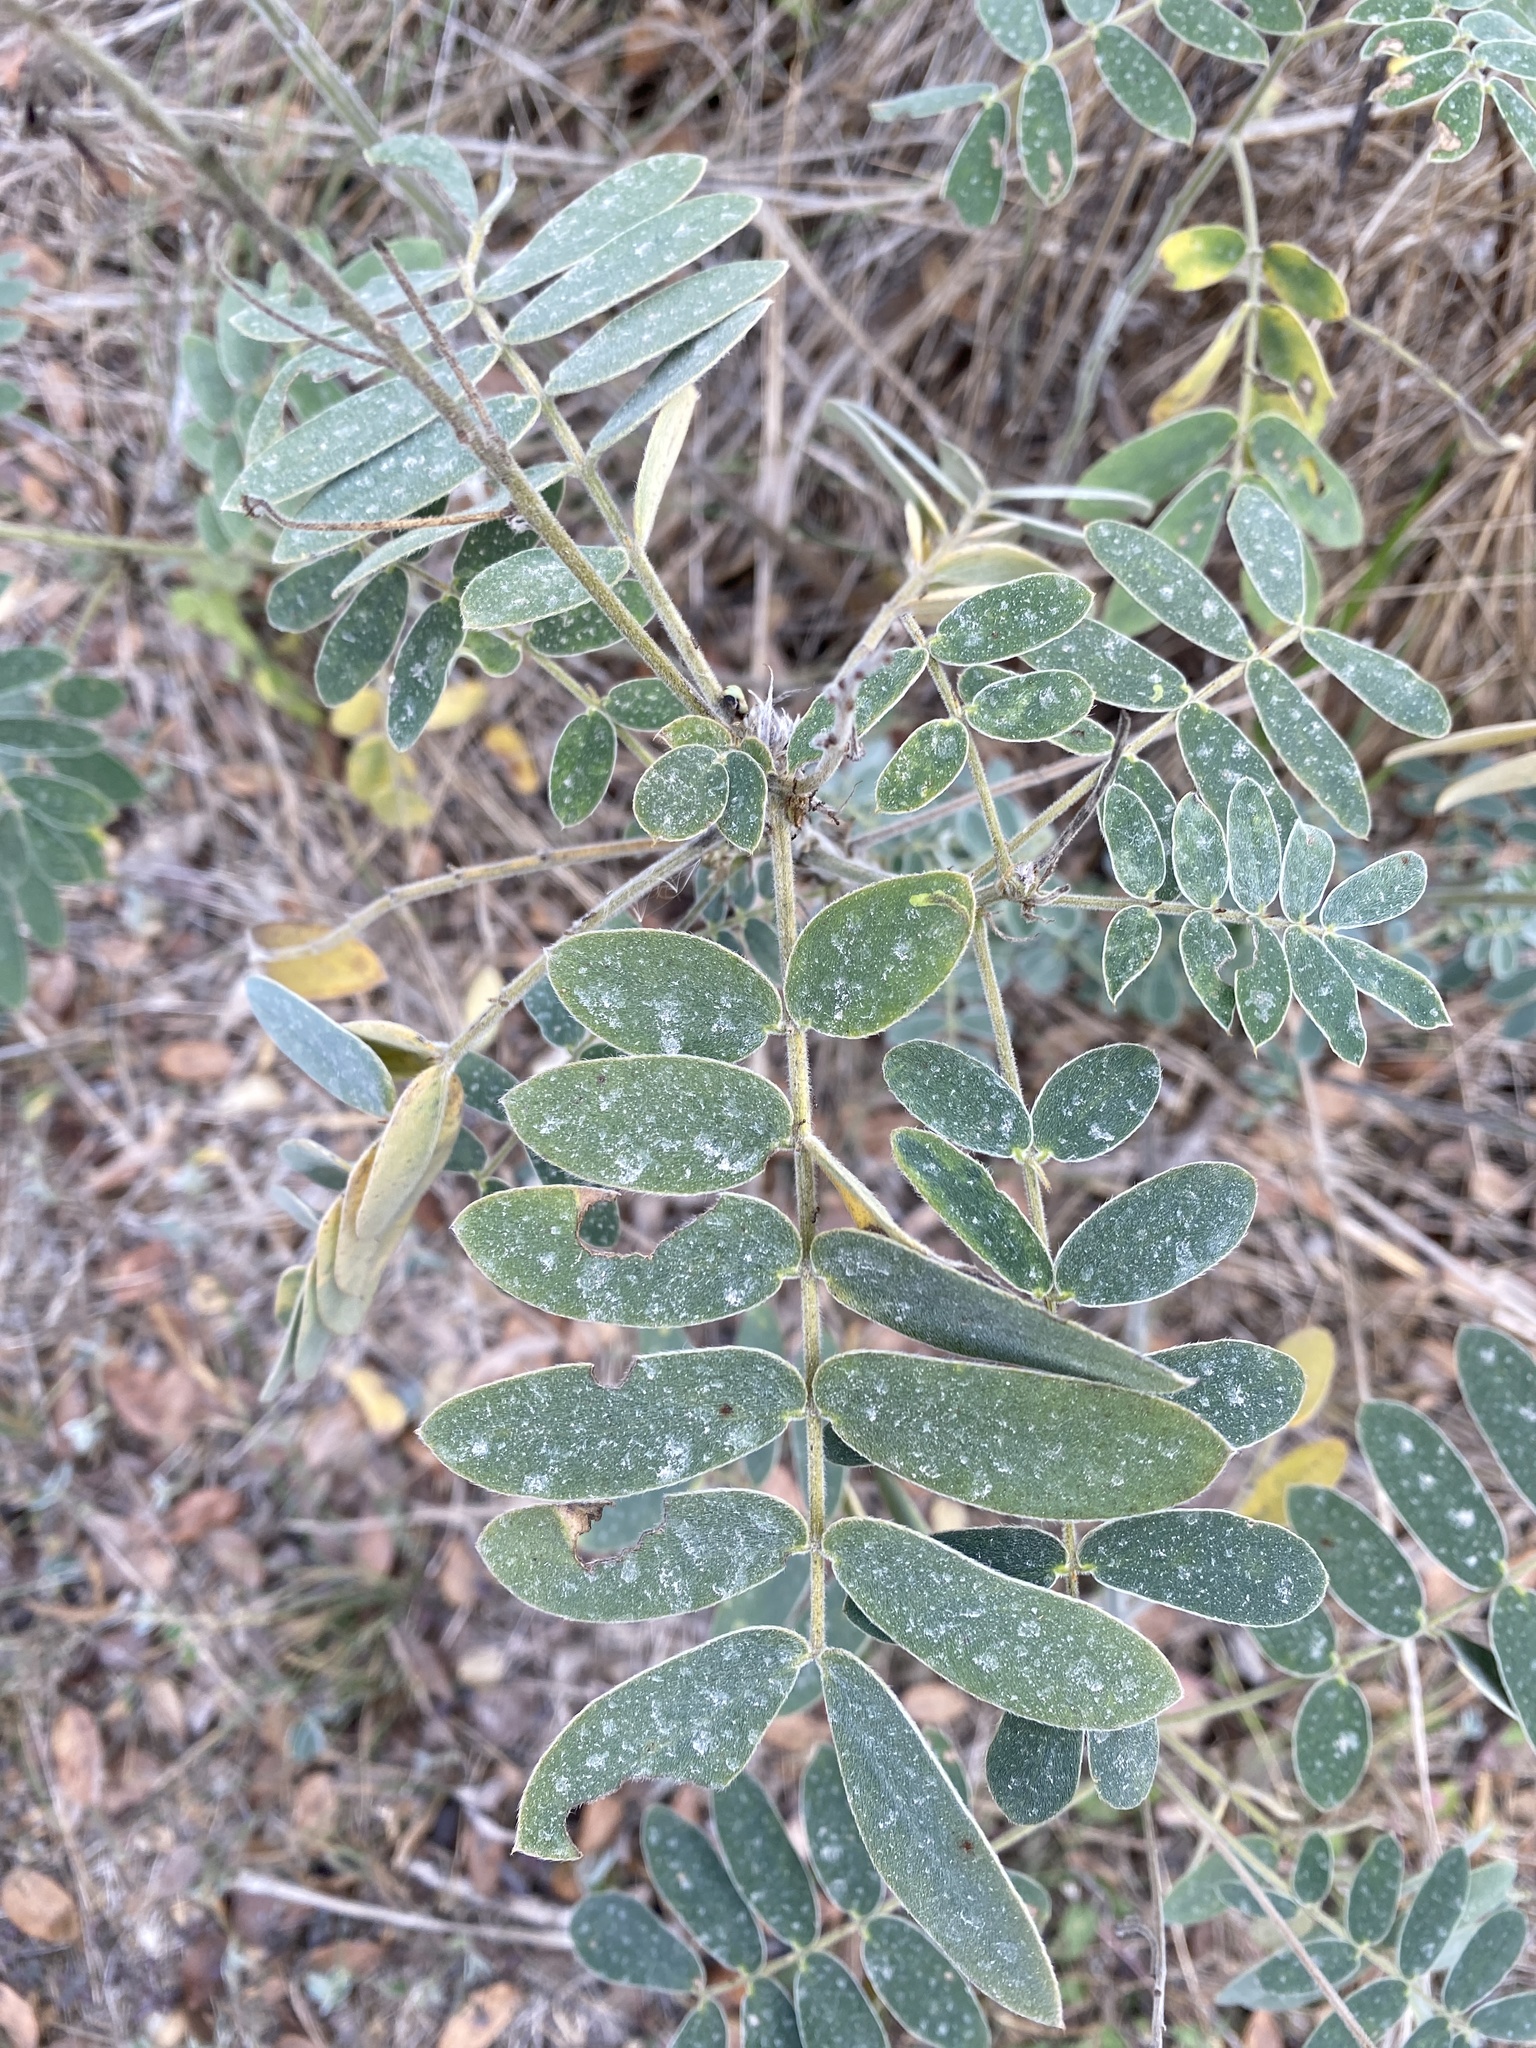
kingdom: Plantae
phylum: Tracheophyta
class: Magnoliopsida
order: Fabales
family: Fabaceae
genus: Senna
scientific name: Senna lindheimeriana
